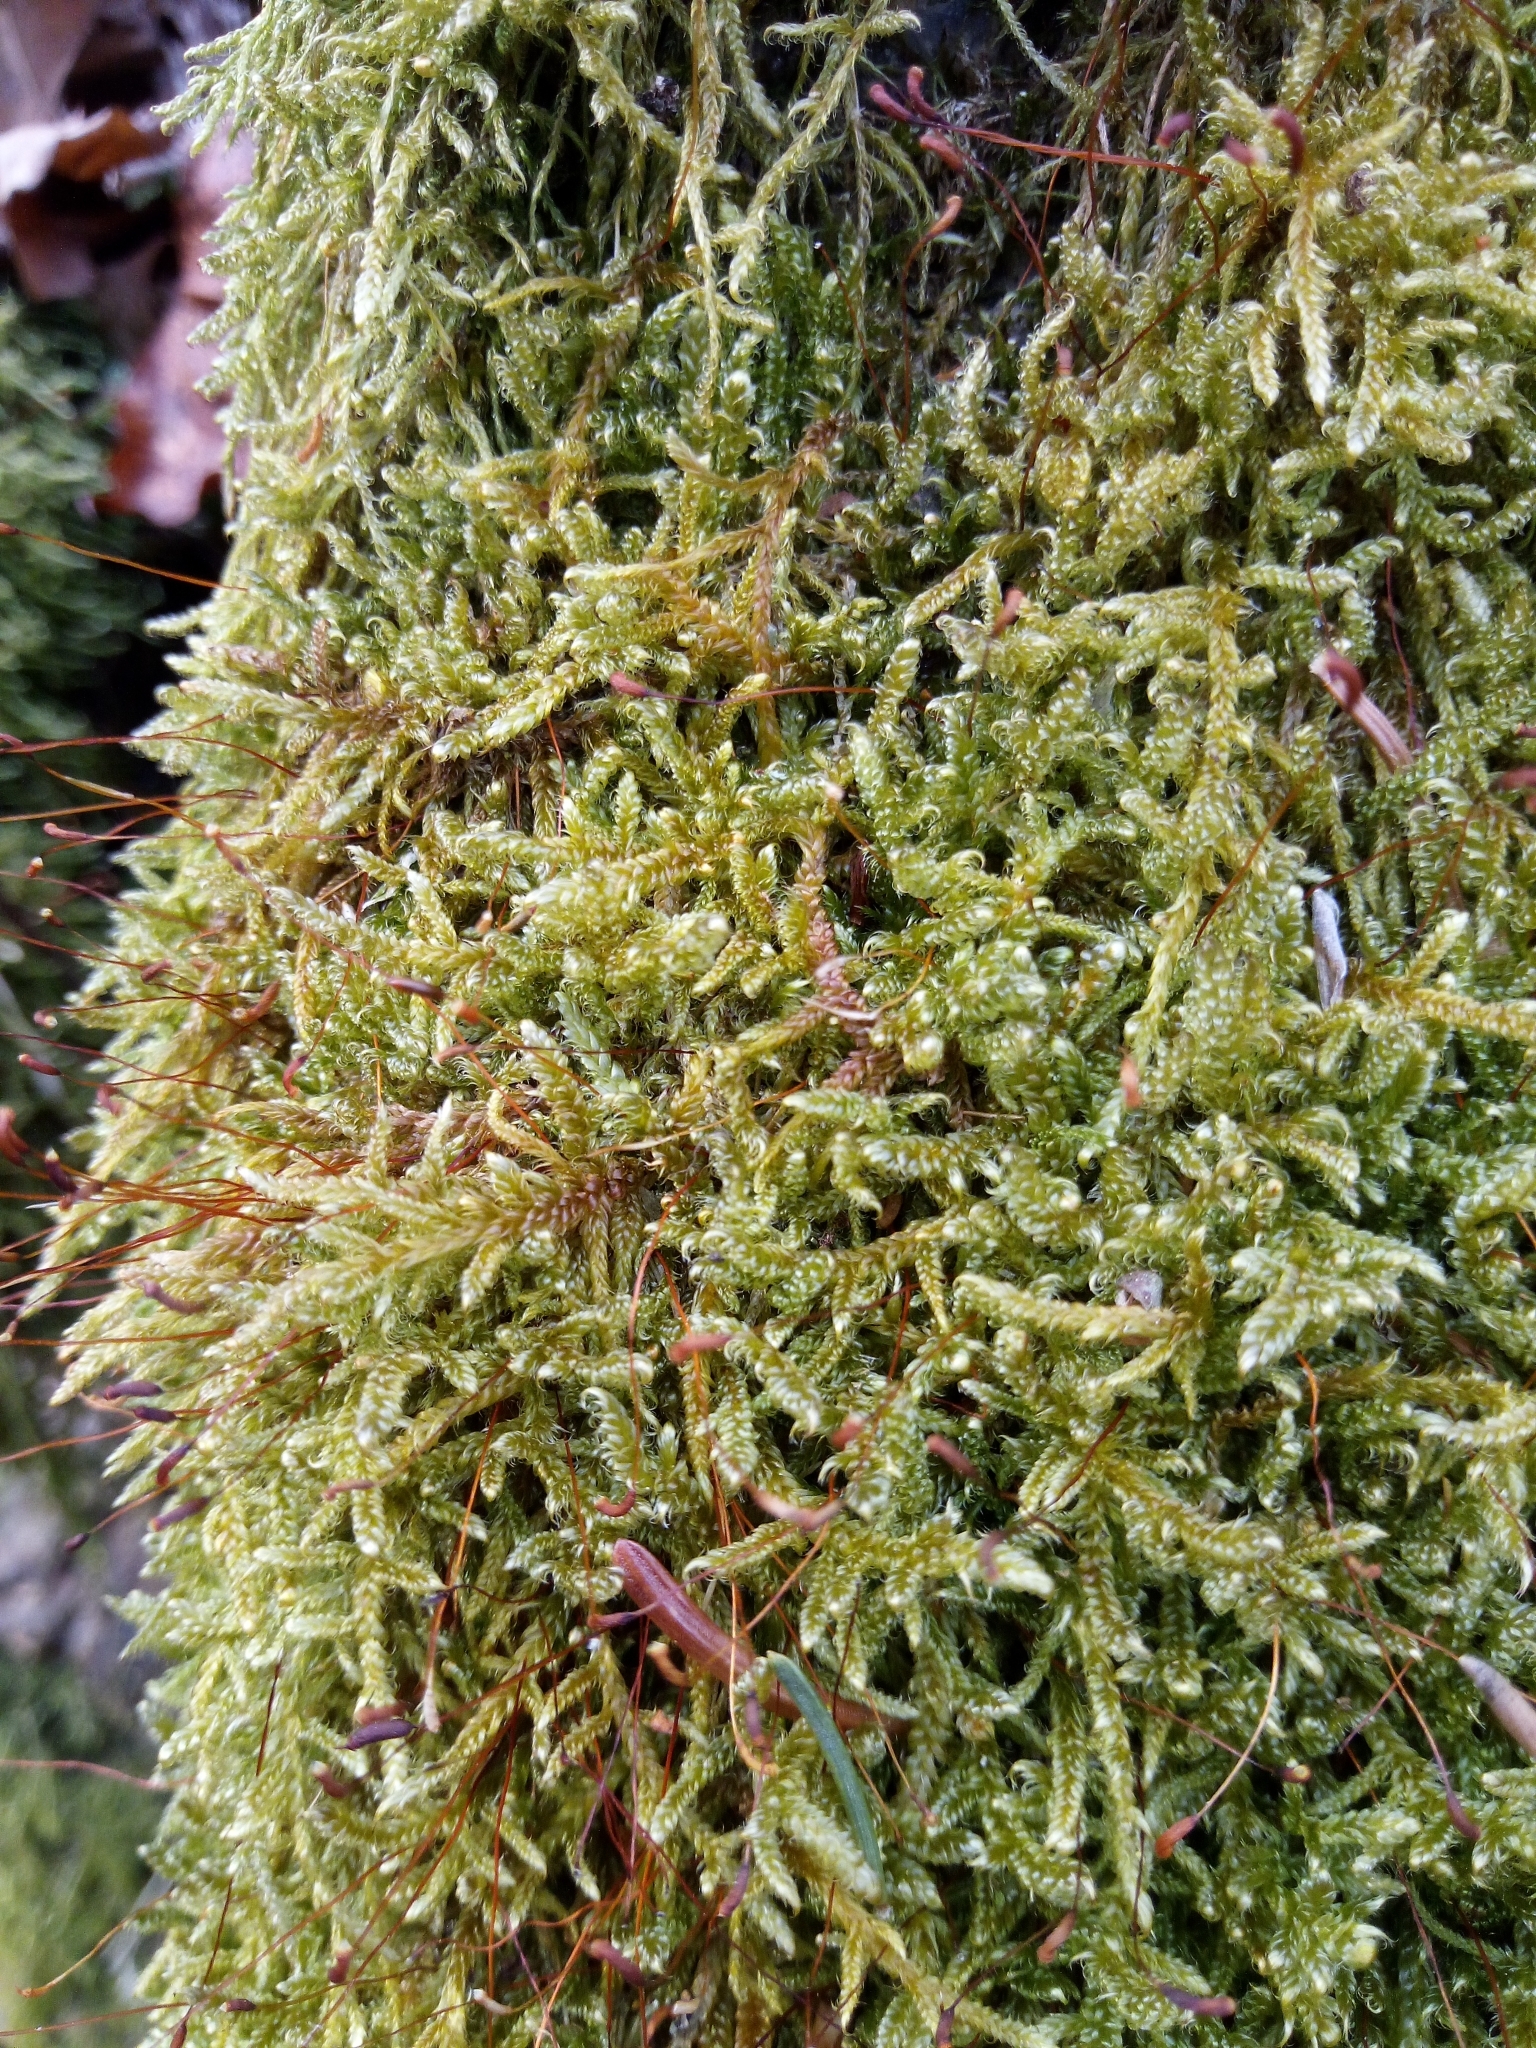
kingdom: Plantae
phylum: Bryophyta
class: Bryopsida
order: Hypnales
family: Hypnaceae
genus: Hypnum
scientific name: Hypnum cupressiforme
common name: Cypress-leaved plait-moss
